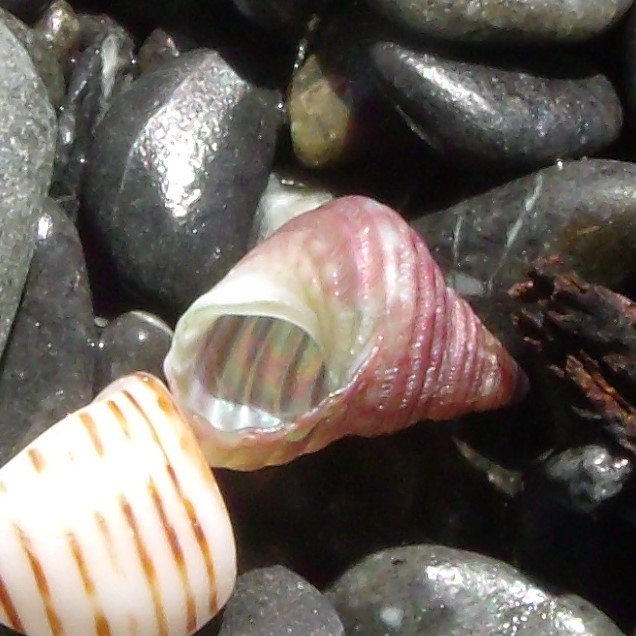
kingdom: Animalia
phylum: Mollusca
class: Gastropoda
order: Trochida
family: Trochidae
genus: Micrelenchus
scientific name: Micrelenchus purpureus
